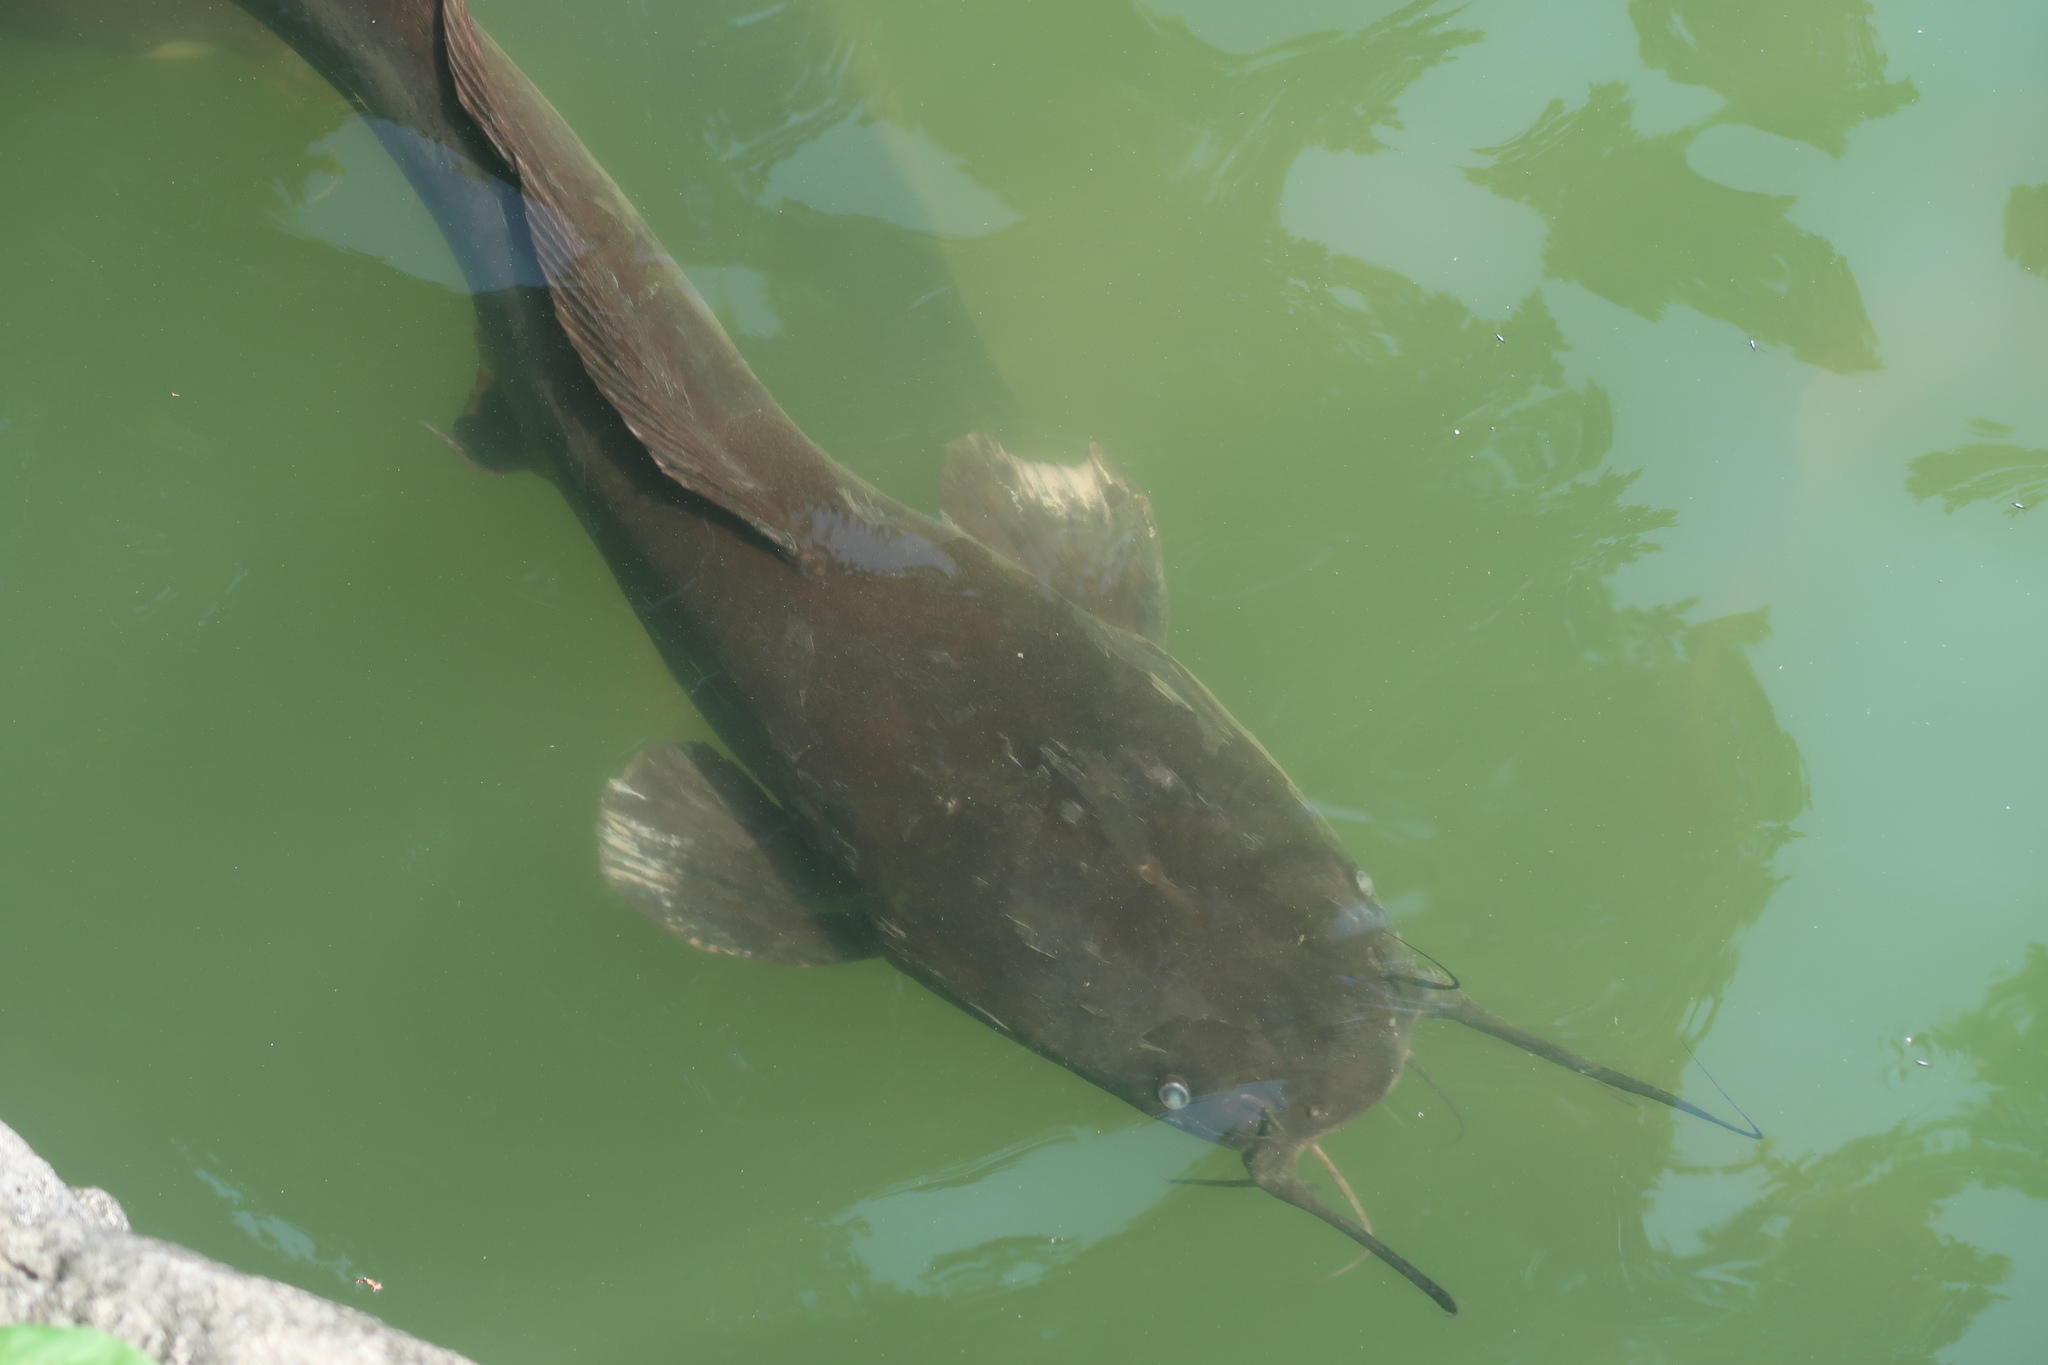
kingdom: Animalia
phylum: Chordata
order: Siluriformes
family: Clariidae
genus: Clarias
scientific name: Clarias gariepinus
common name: African catfish
